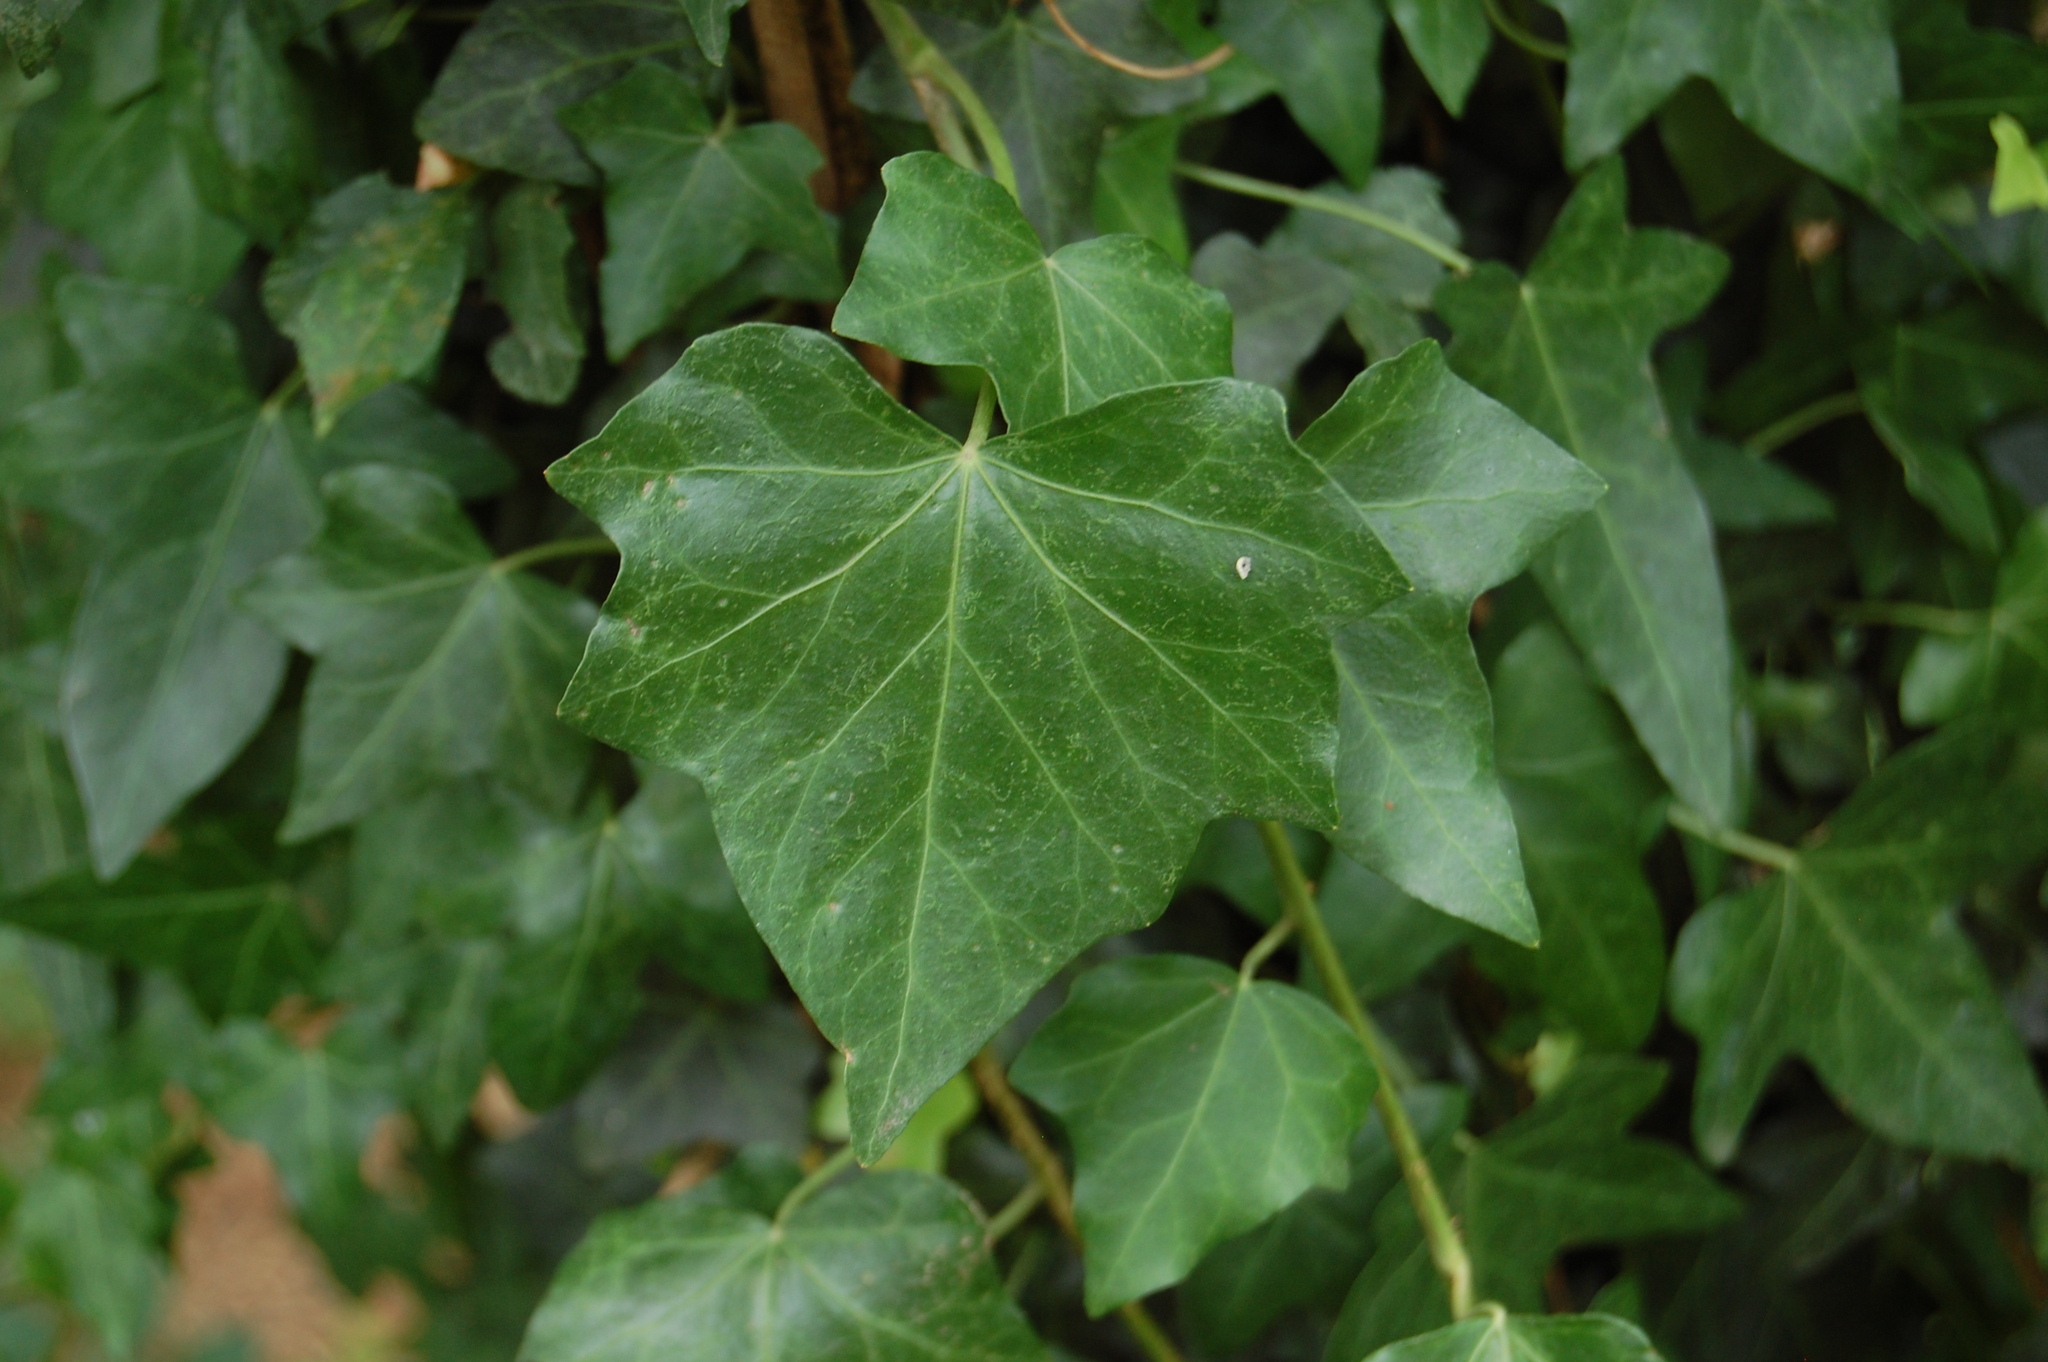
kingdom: Plantae
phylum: Tracheophyta
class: Magnoliopsida
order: Apiales
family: Araliaceae
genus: Hedera
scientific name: Hedera helix
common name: Ivy
